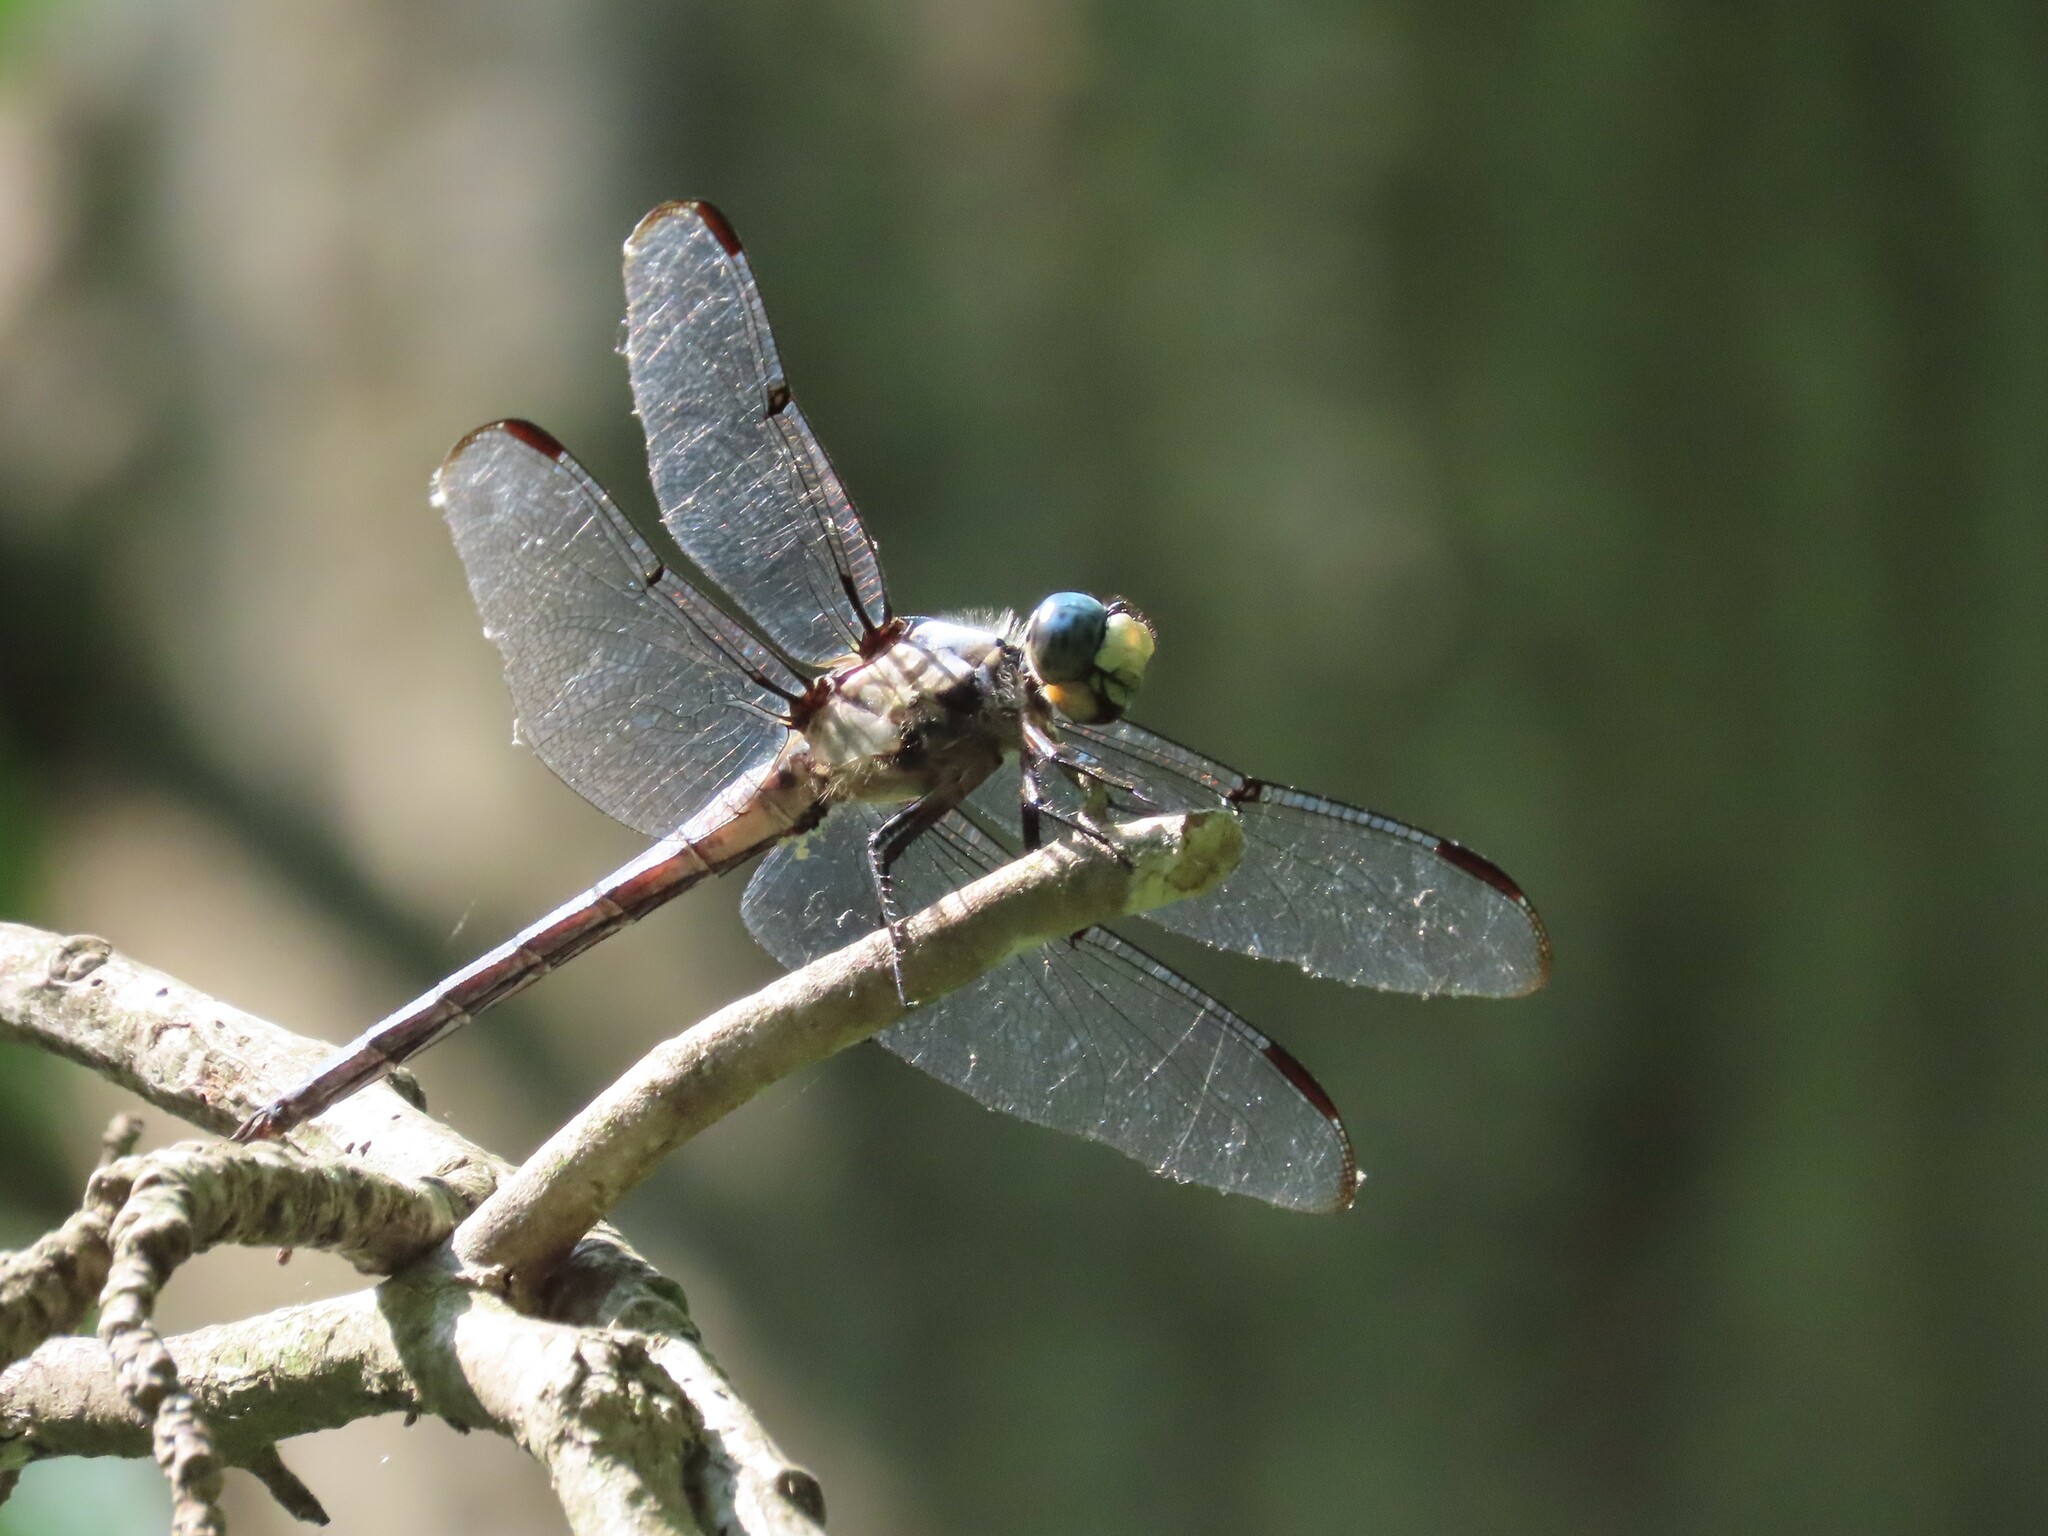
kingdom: Animalia
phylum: Arthropoda
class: Insecta
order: Odonata
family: Libellulidae
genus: Libellula
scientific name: Libellula vibrans
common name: Great blue skimmer
